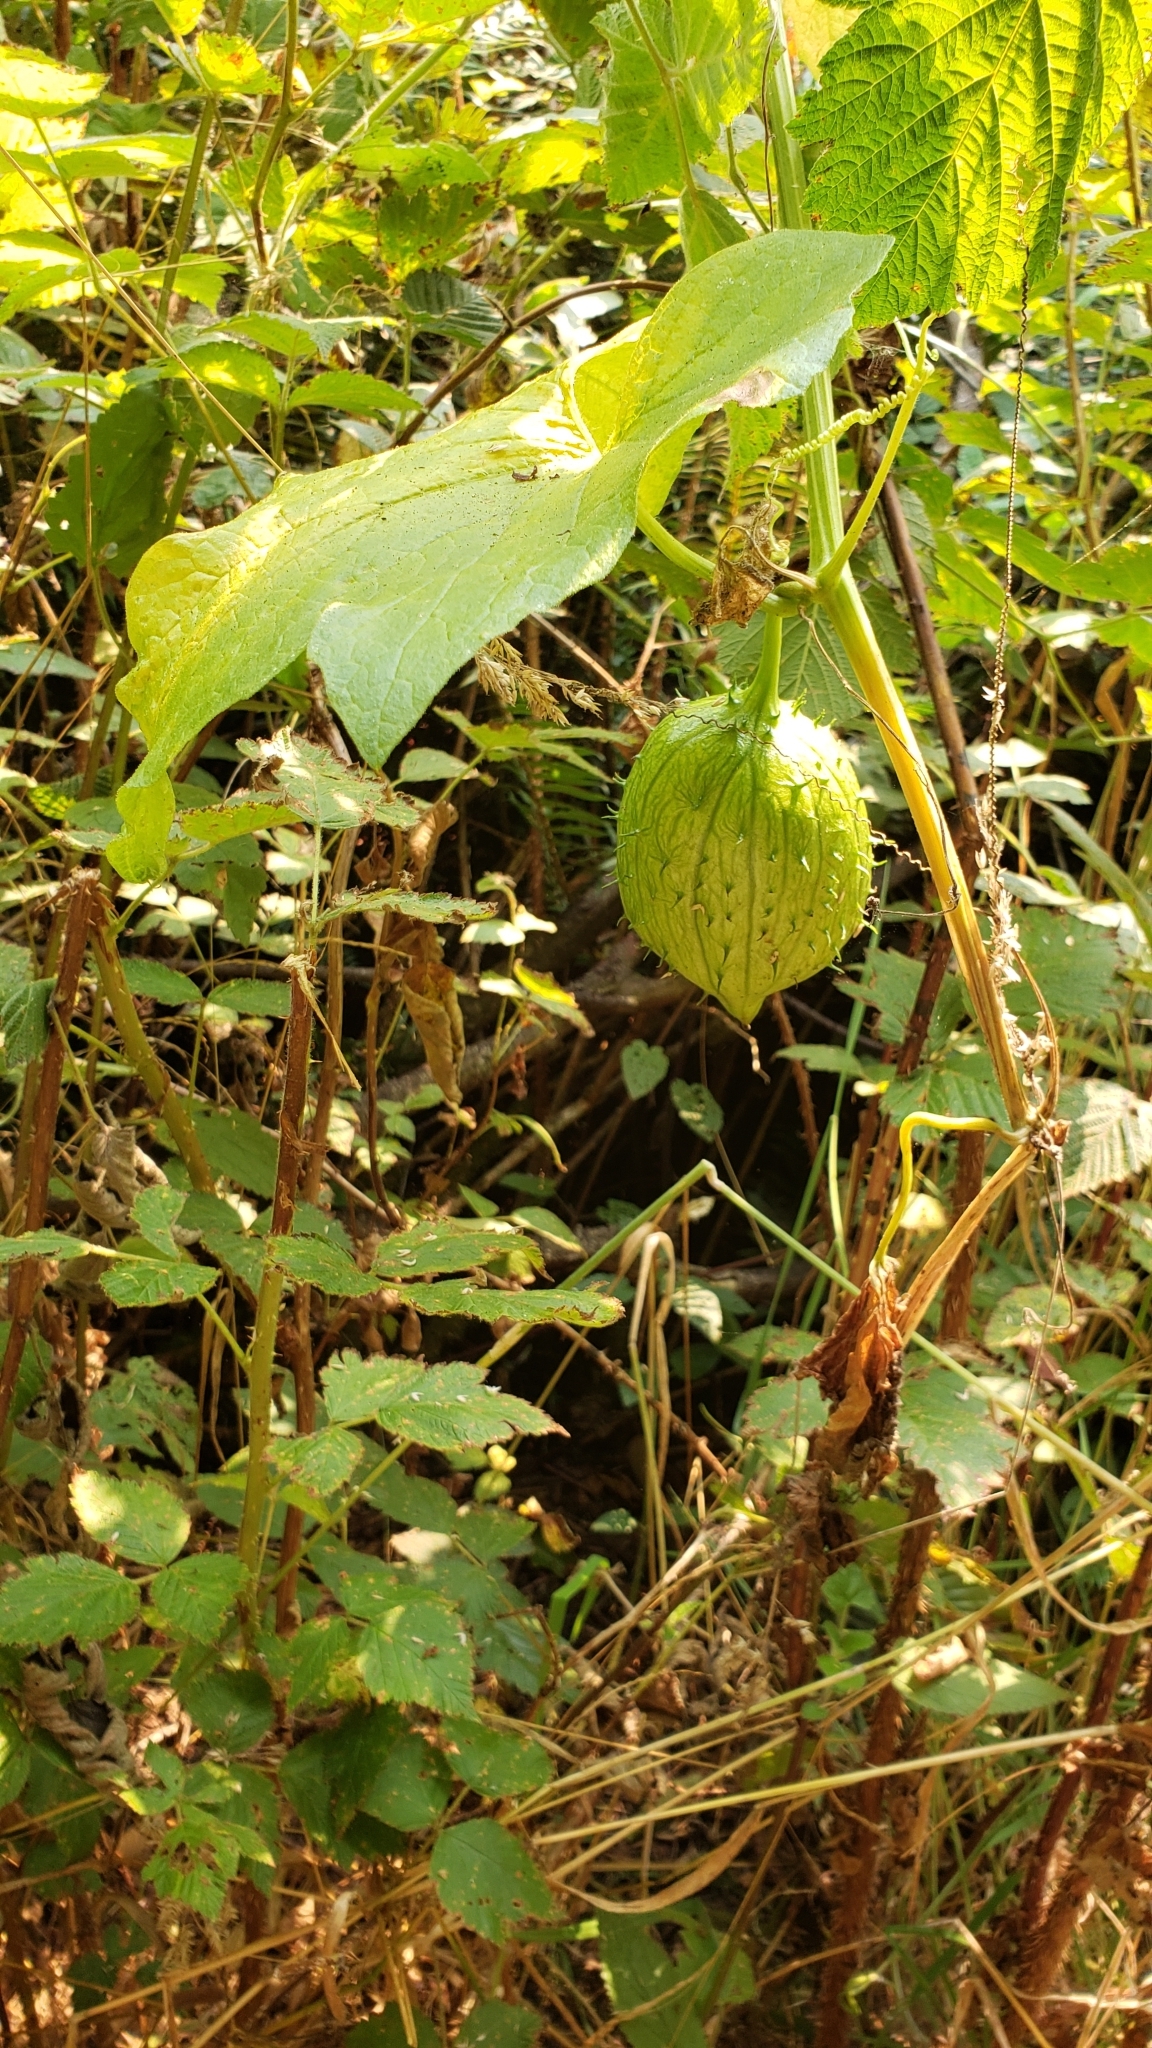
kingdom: Plantae
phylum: Tracheophyta
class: Magnoliopsida
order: Cucurbitales
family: Cucurbitaceae
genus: Marah
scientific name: Marah oregana
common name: Coastal manroot
